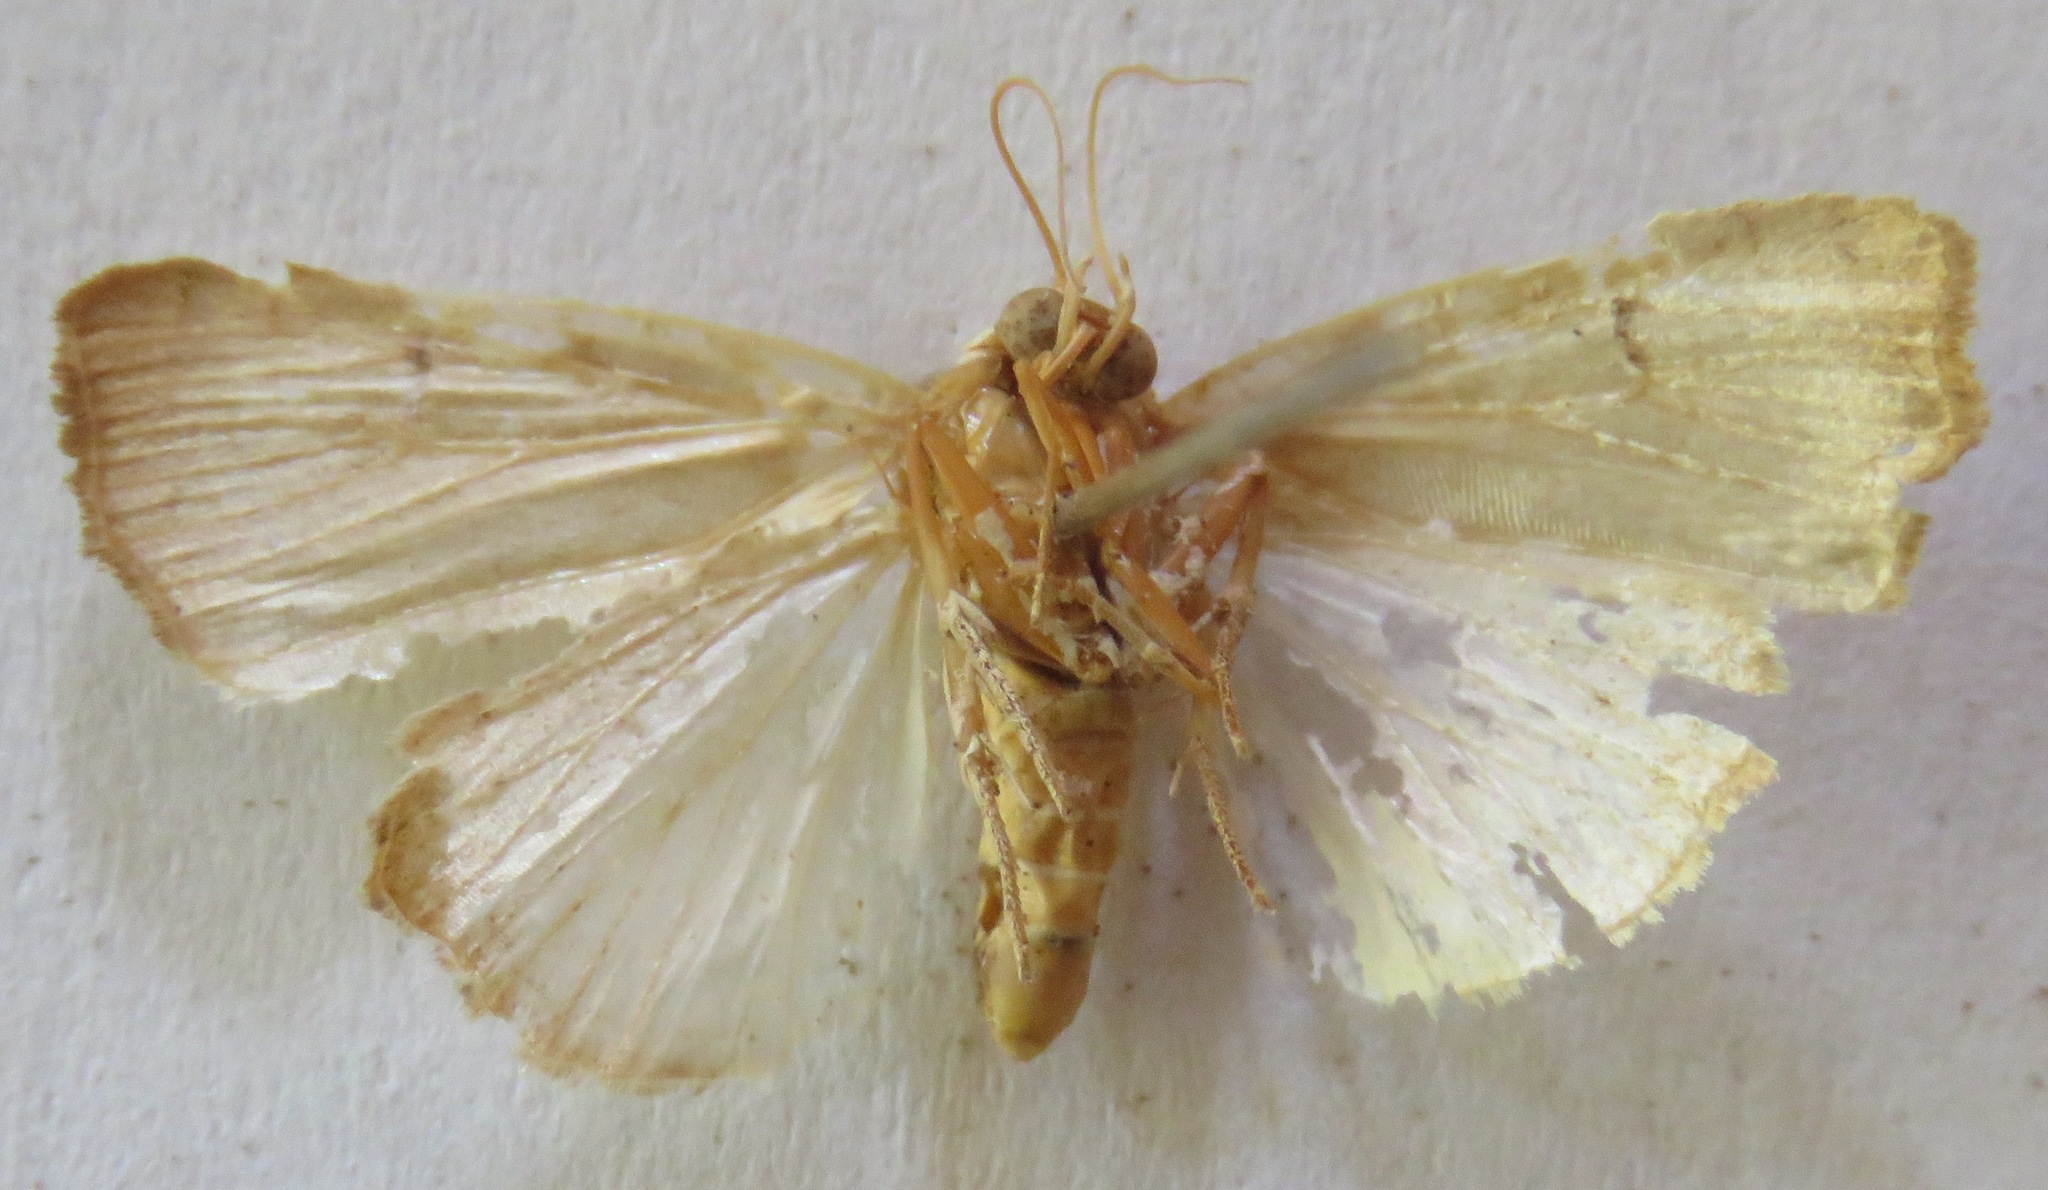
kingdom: Animalia
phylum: Arthropoda
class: Insecta
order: Lepidoptera
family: Noctuidae
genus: Bagisara
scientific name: Bagisara repanda
